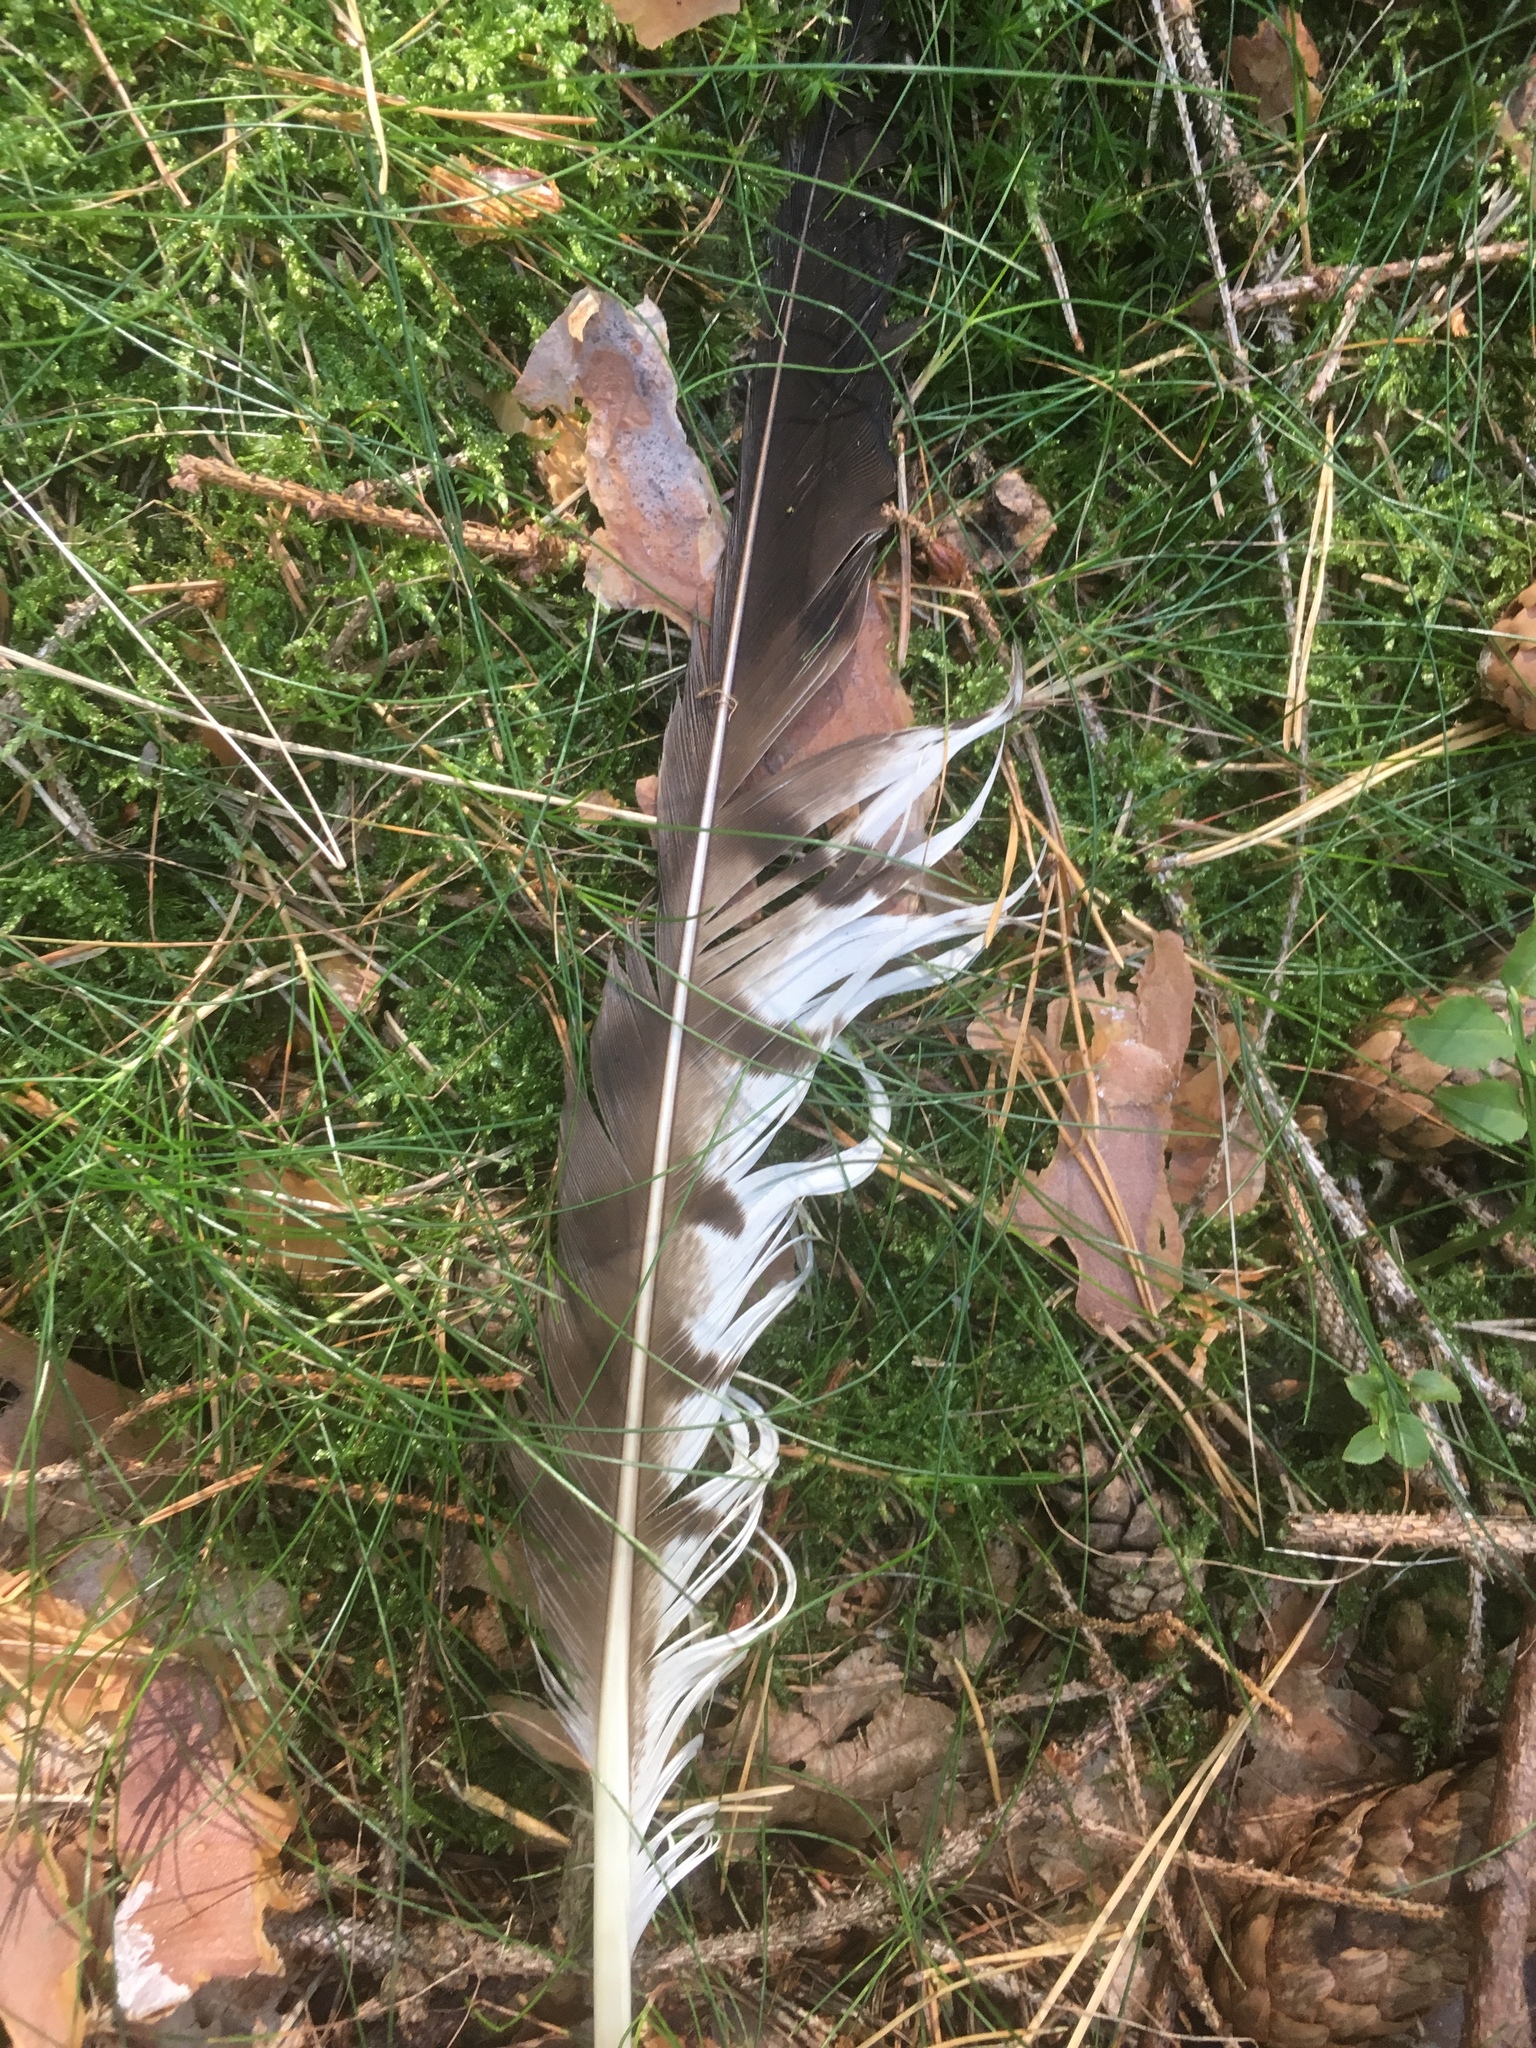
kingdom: Animalia
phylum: Chordata
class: Aves
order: Accipitriformes
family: Accipitridae
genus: Buteo
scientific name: Buteo buteo
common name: Common buzzard
